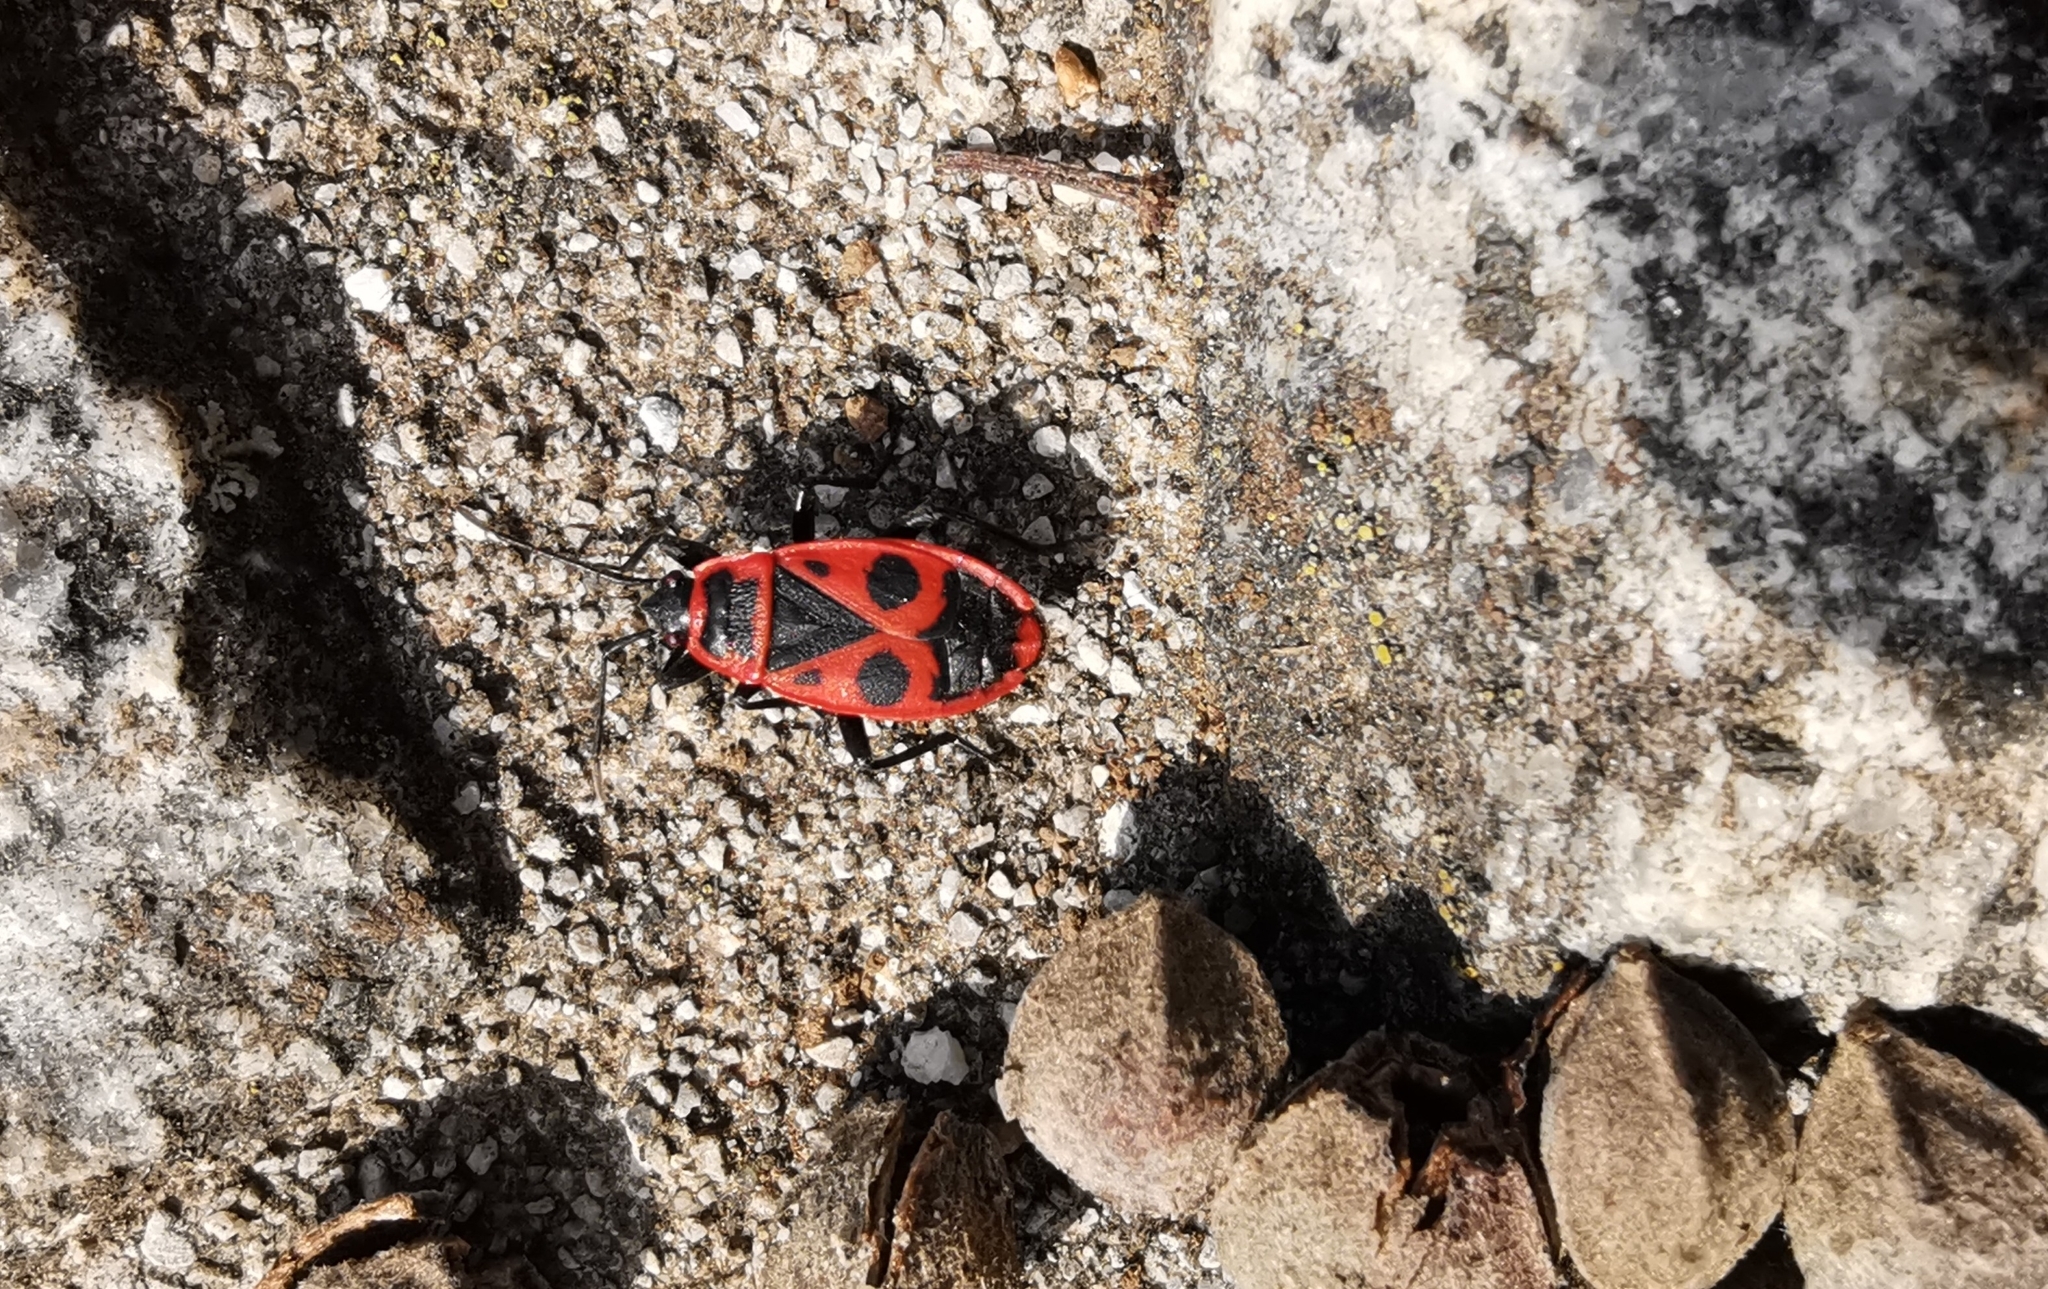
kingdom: Animalia
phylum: Arthropoda
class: Insecta
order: Hemiptera
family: Pyrrhocoridae
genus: Pyrrhocoris
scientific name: Pyrrhocoris apterus
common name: Firebug
